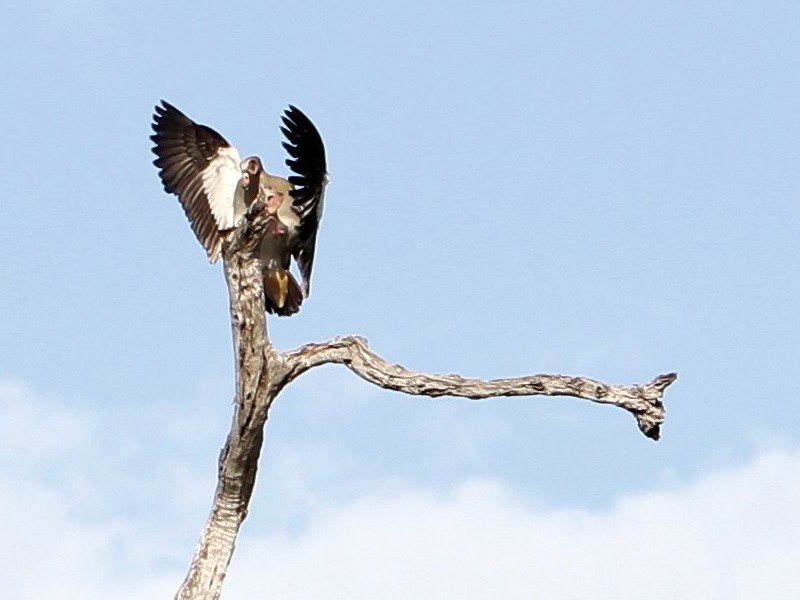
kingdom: Animalia
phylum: Chordata
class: Aves
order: Anseriformes
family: Anatidae
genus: Alopochen
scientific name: Alopochen aegyptiaca
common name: Egyptian goose
